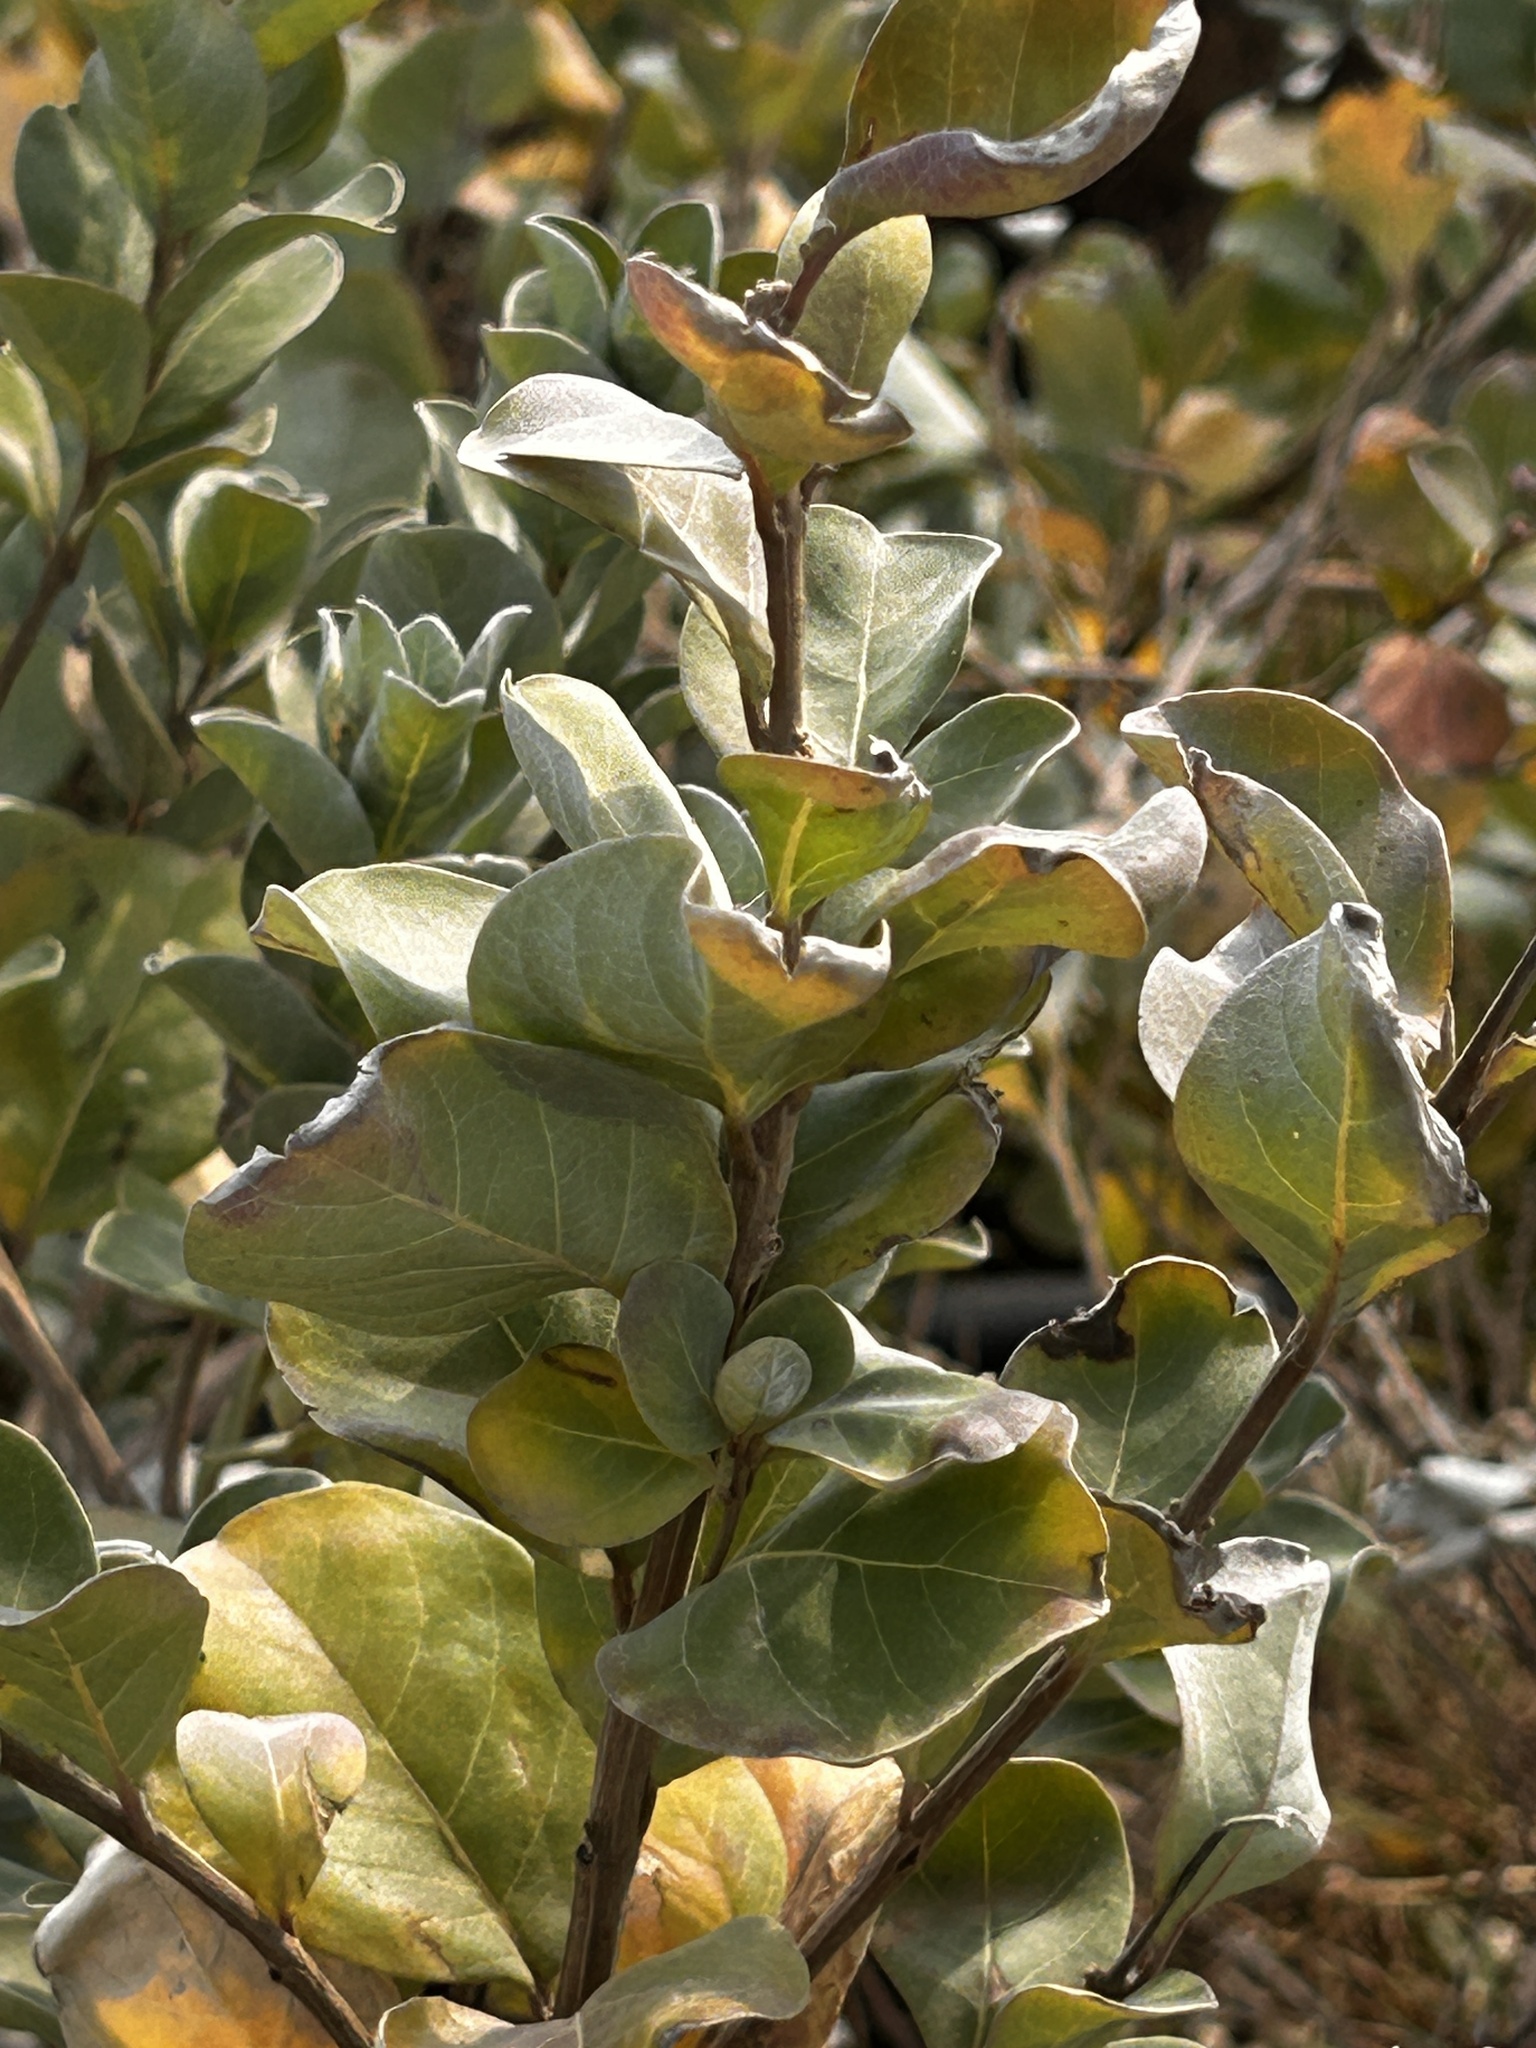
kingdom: Plantae
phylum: Tracheophyta
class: Magnoliopsida
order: Lamiales
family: Lamiaceae
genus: Vitex
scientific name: Vitex rotundifolia
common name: Beach vitex
